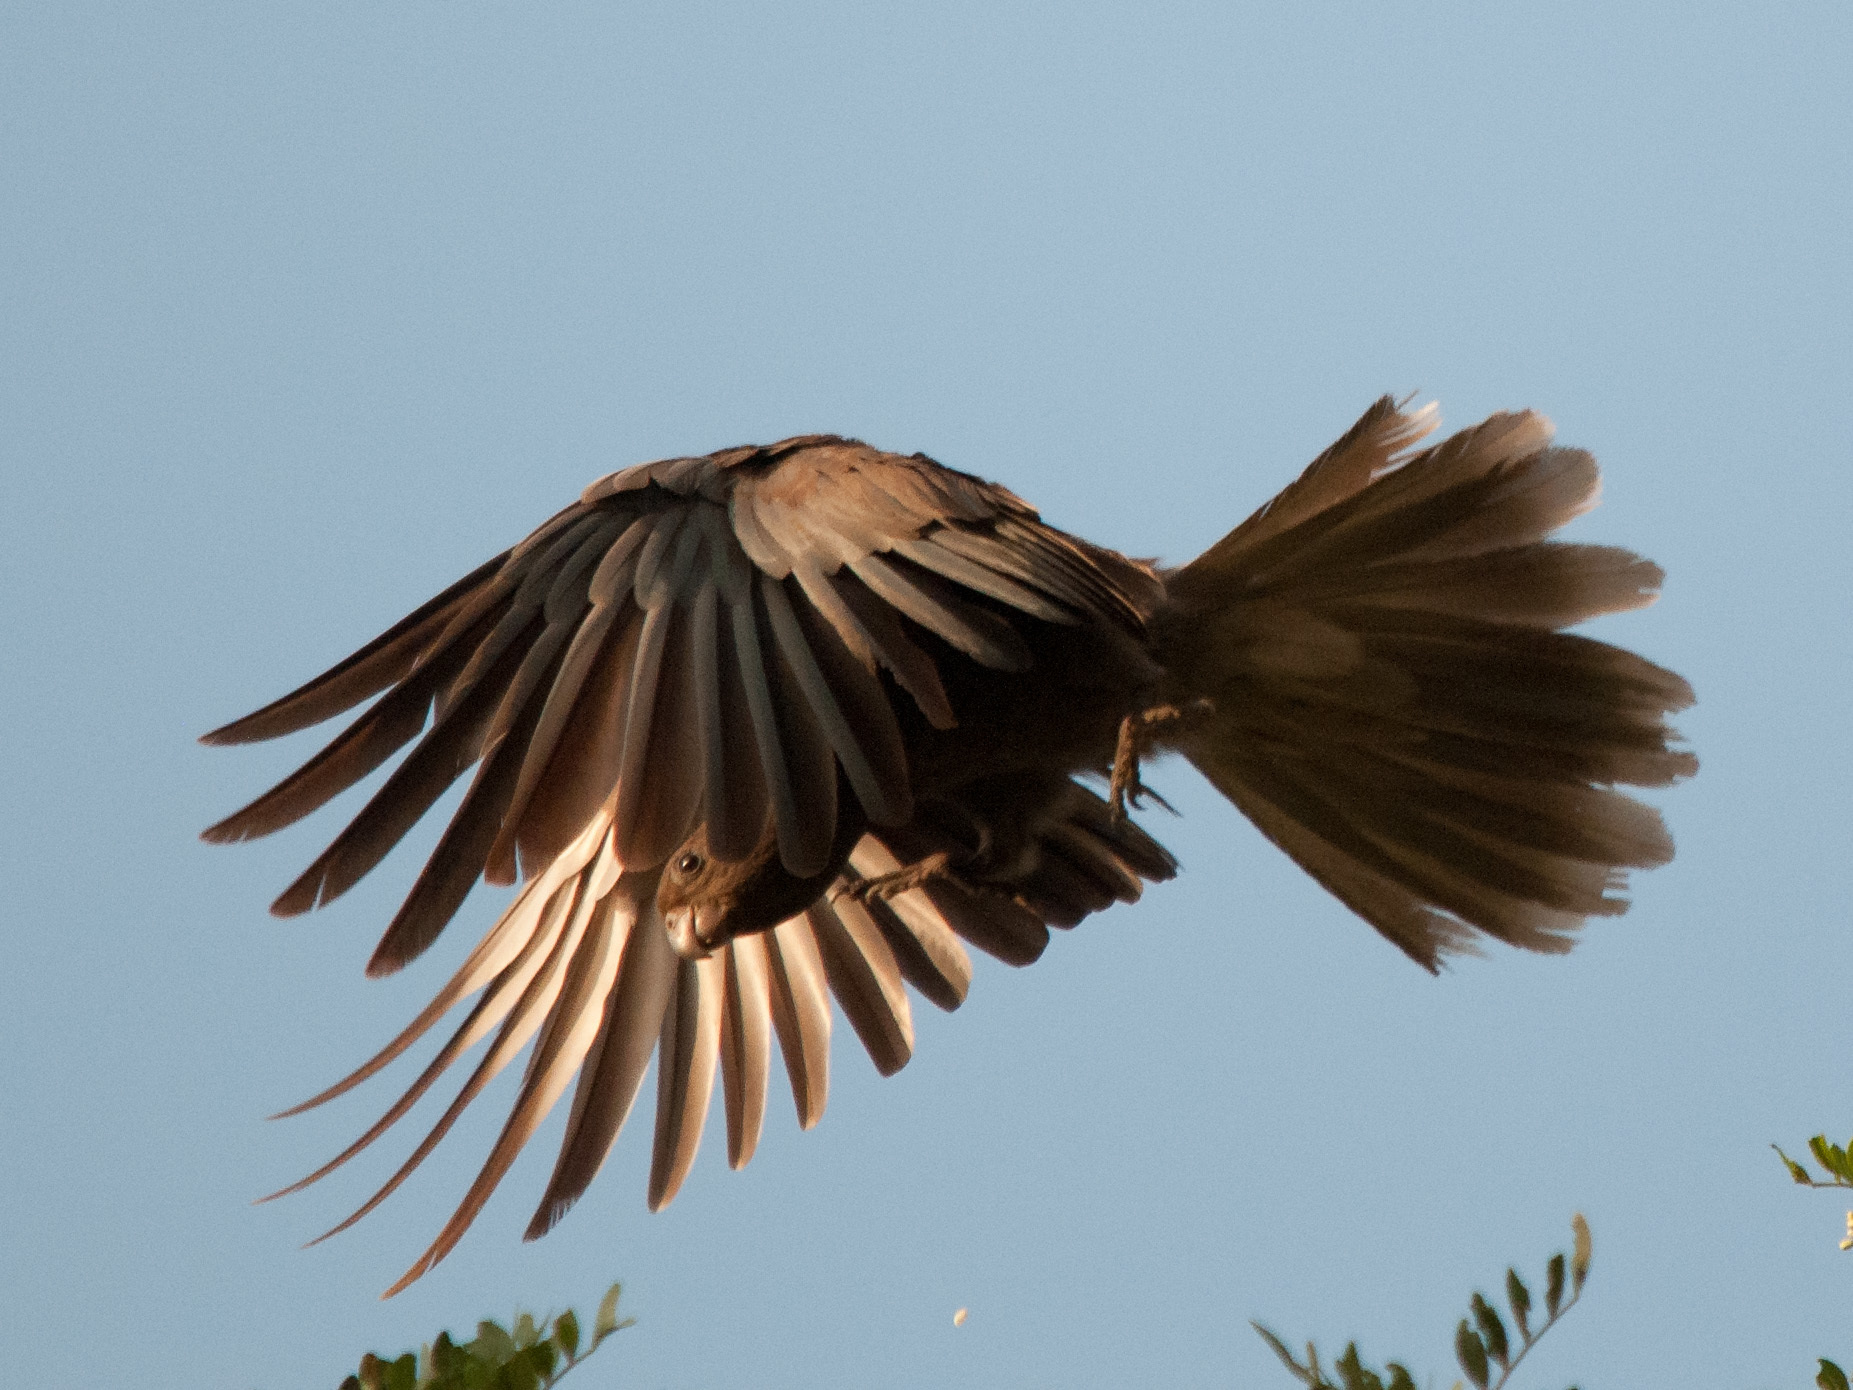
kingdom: Animalia
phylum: Chordata
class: Aves
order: Psittaciformes
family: Psittacidae
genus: Coracopsis
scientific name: Coracopsis nigra
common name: Lesser vasa parrot
